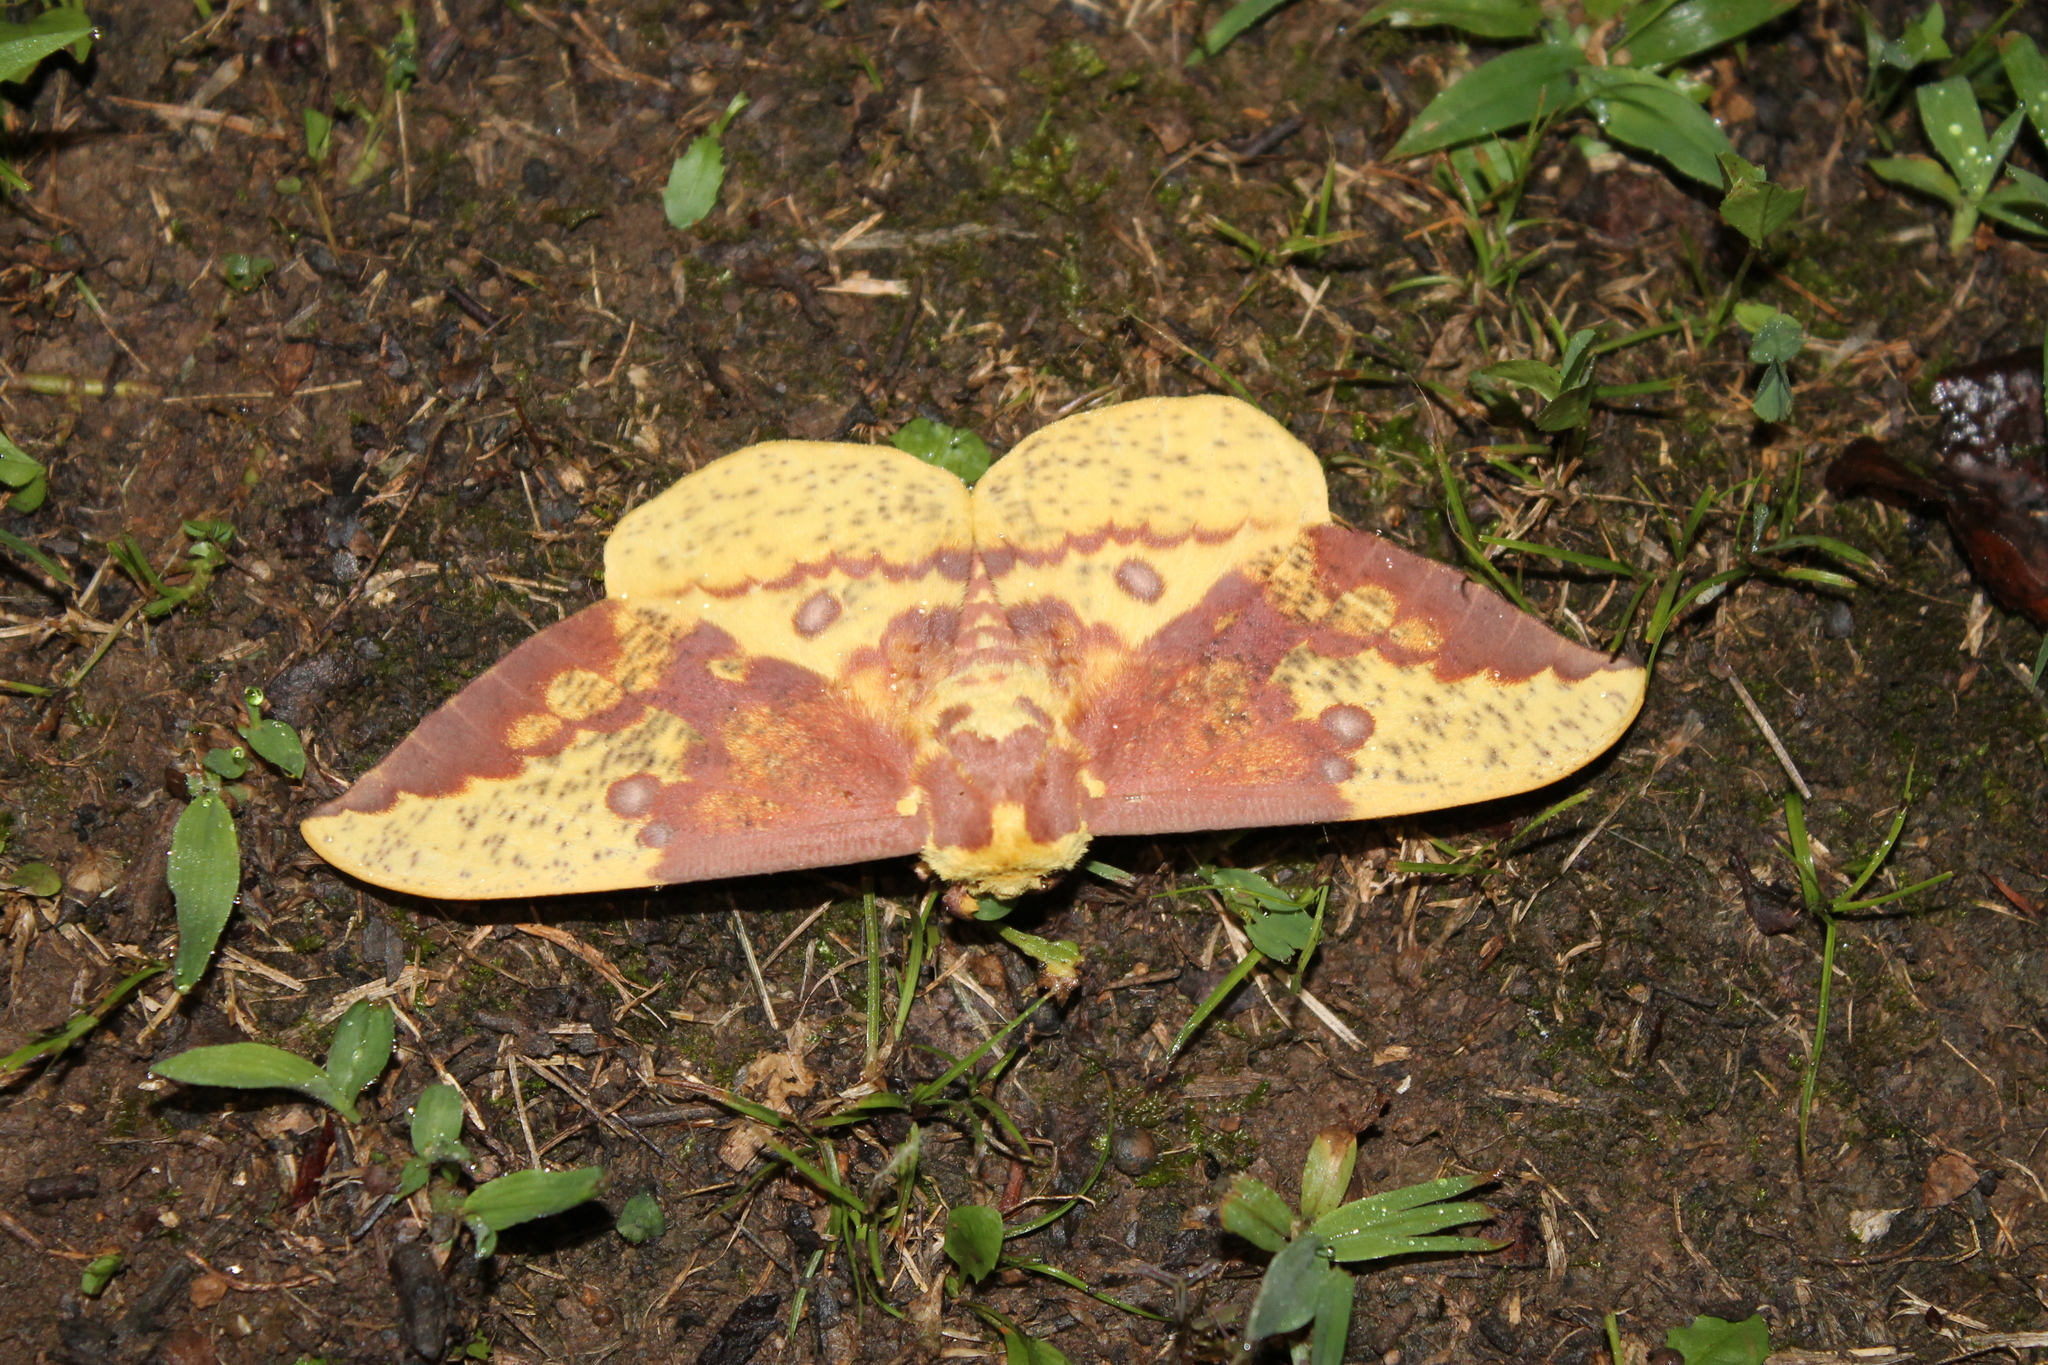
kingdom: Animalia
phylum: Arthropoda
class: Insecta
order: Lepidoptera
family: Saturniidae
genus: Eacles
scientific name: Eacles imperialis
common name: Imperial moth
